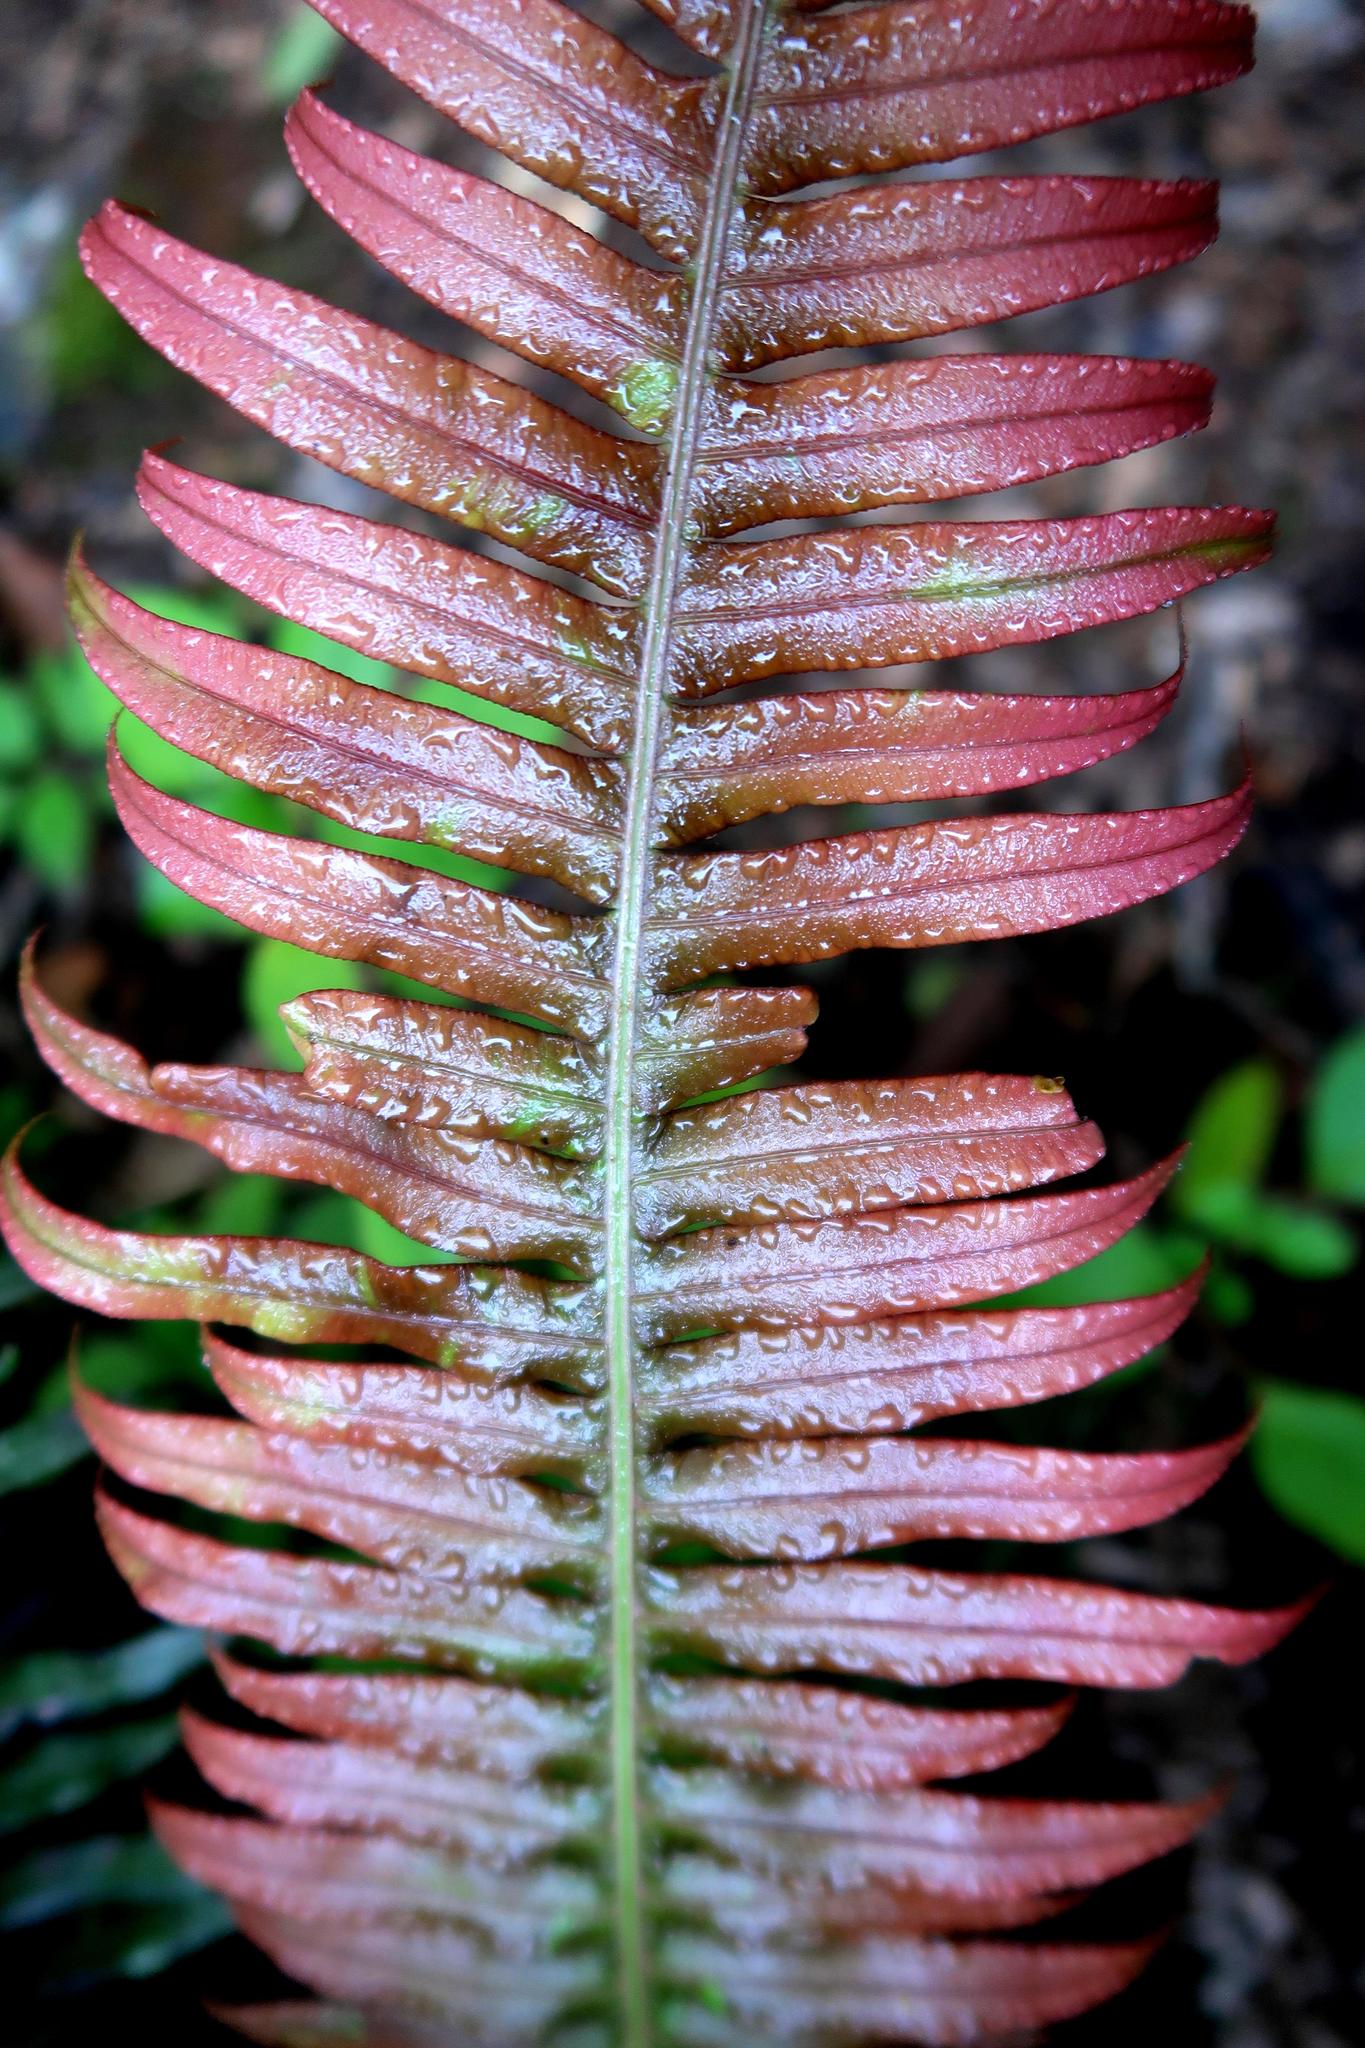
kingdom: Plantae
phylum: Tracheophyta
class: Polypodiopsida
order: Polypodiales
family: Blechnaceae
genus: Lomaridium
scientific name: Lomaridium attenuatum
